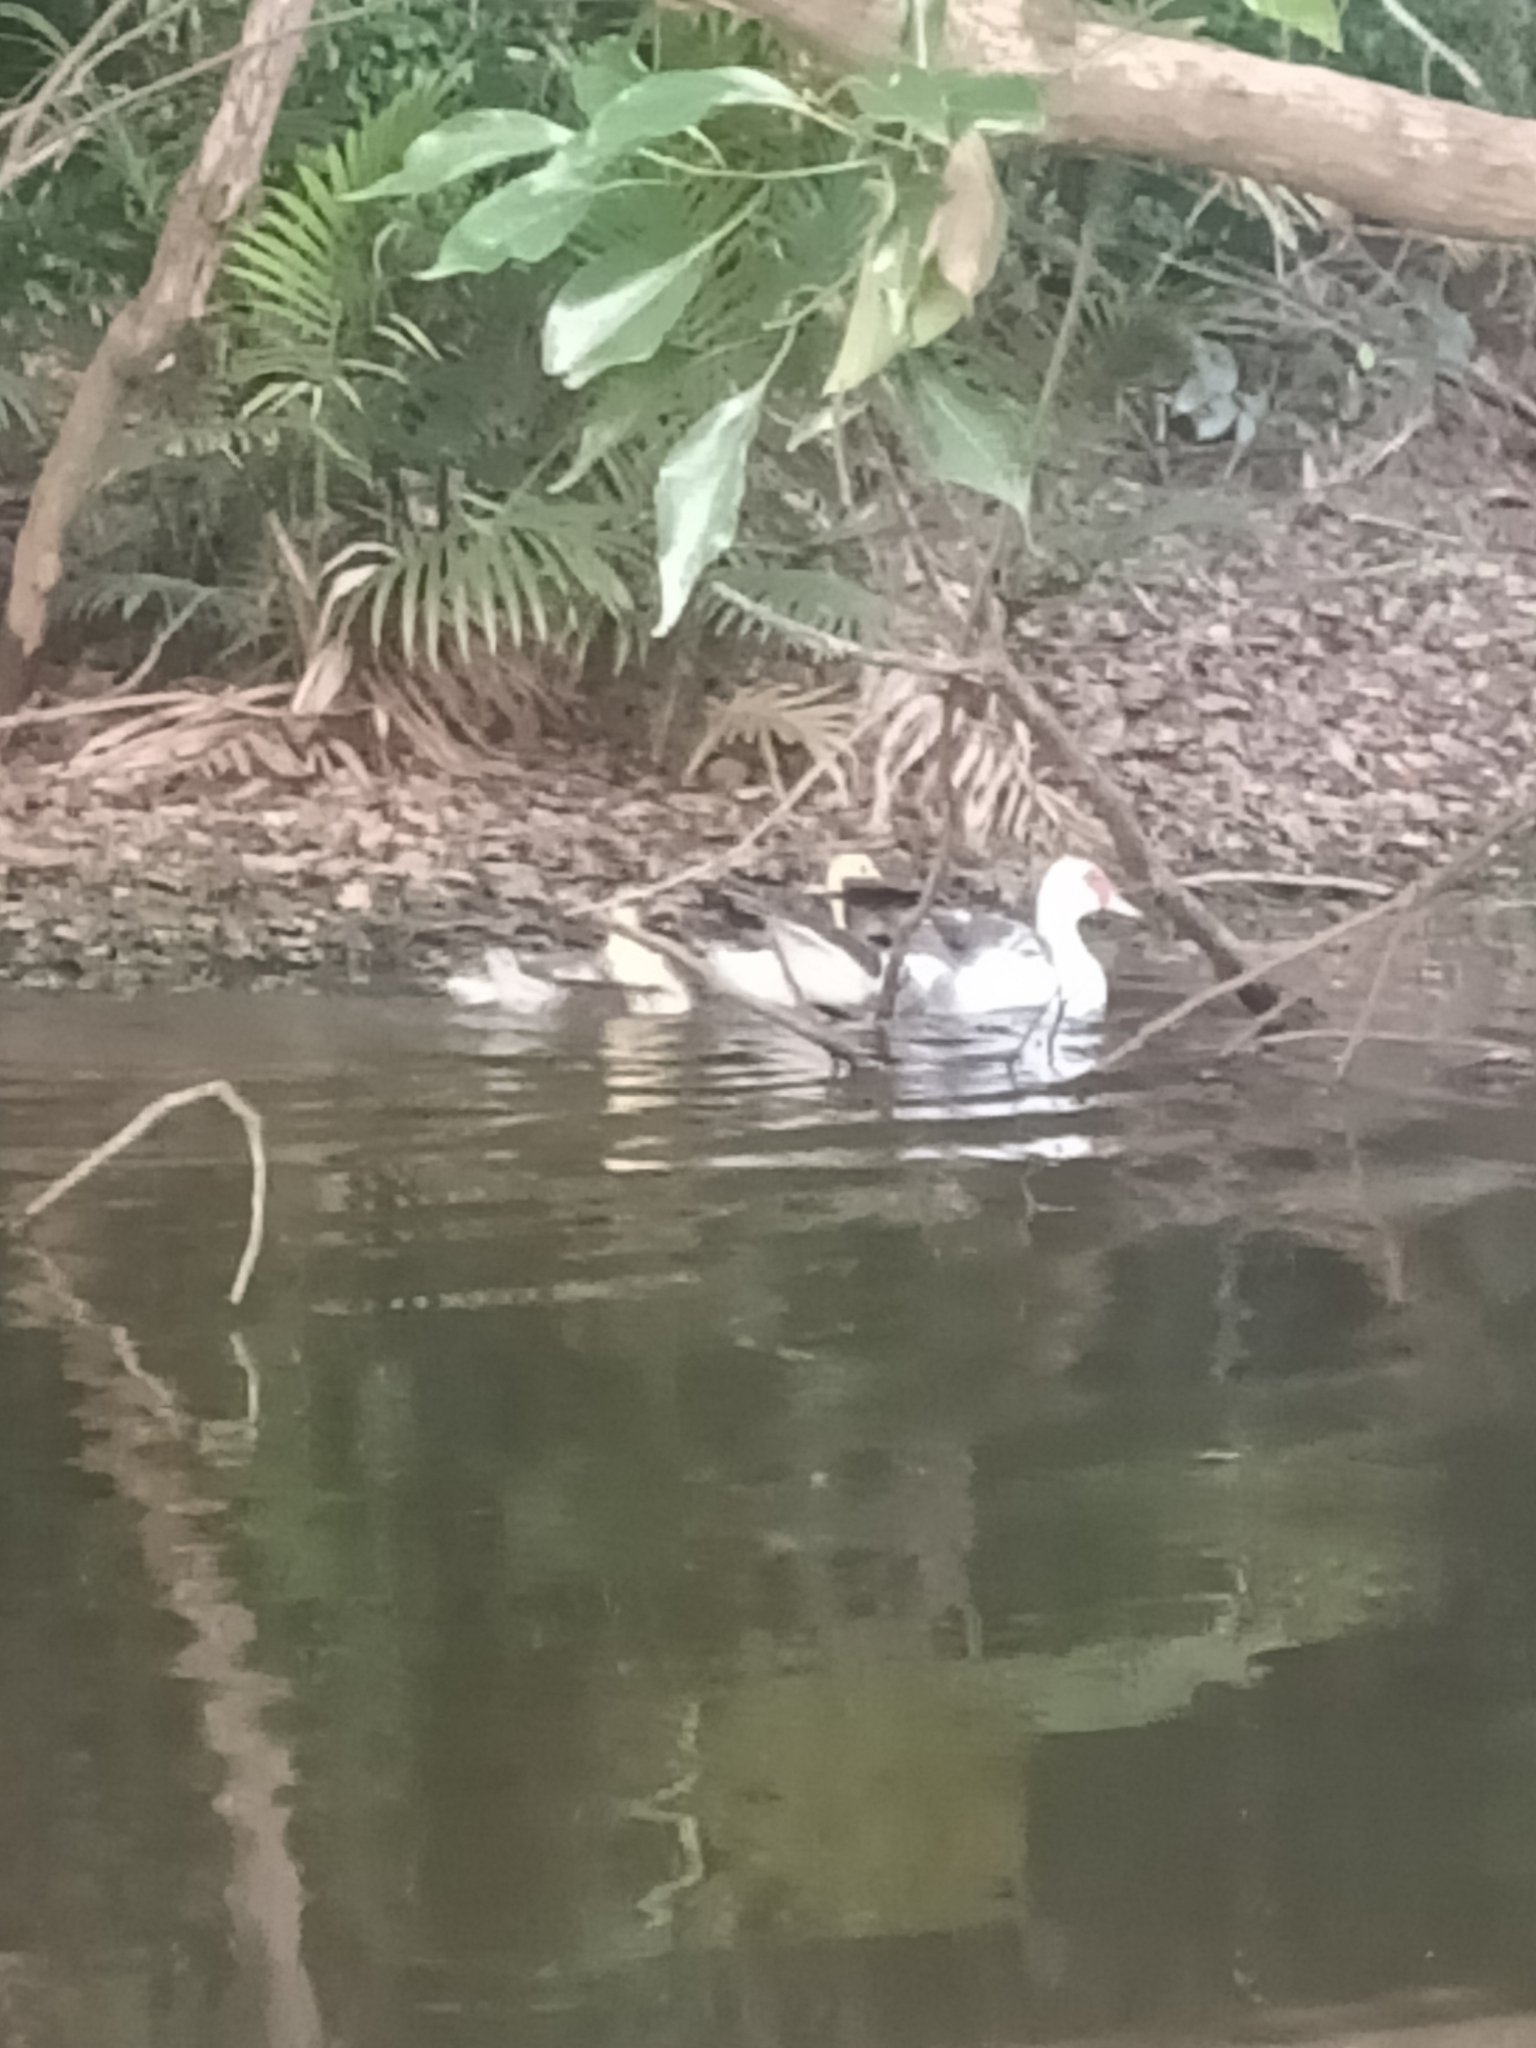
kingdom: Animalia
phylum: Chordata
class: Aves
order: Anseriformes
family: Anatidae
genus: Cairina
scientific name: Cairina moschata
